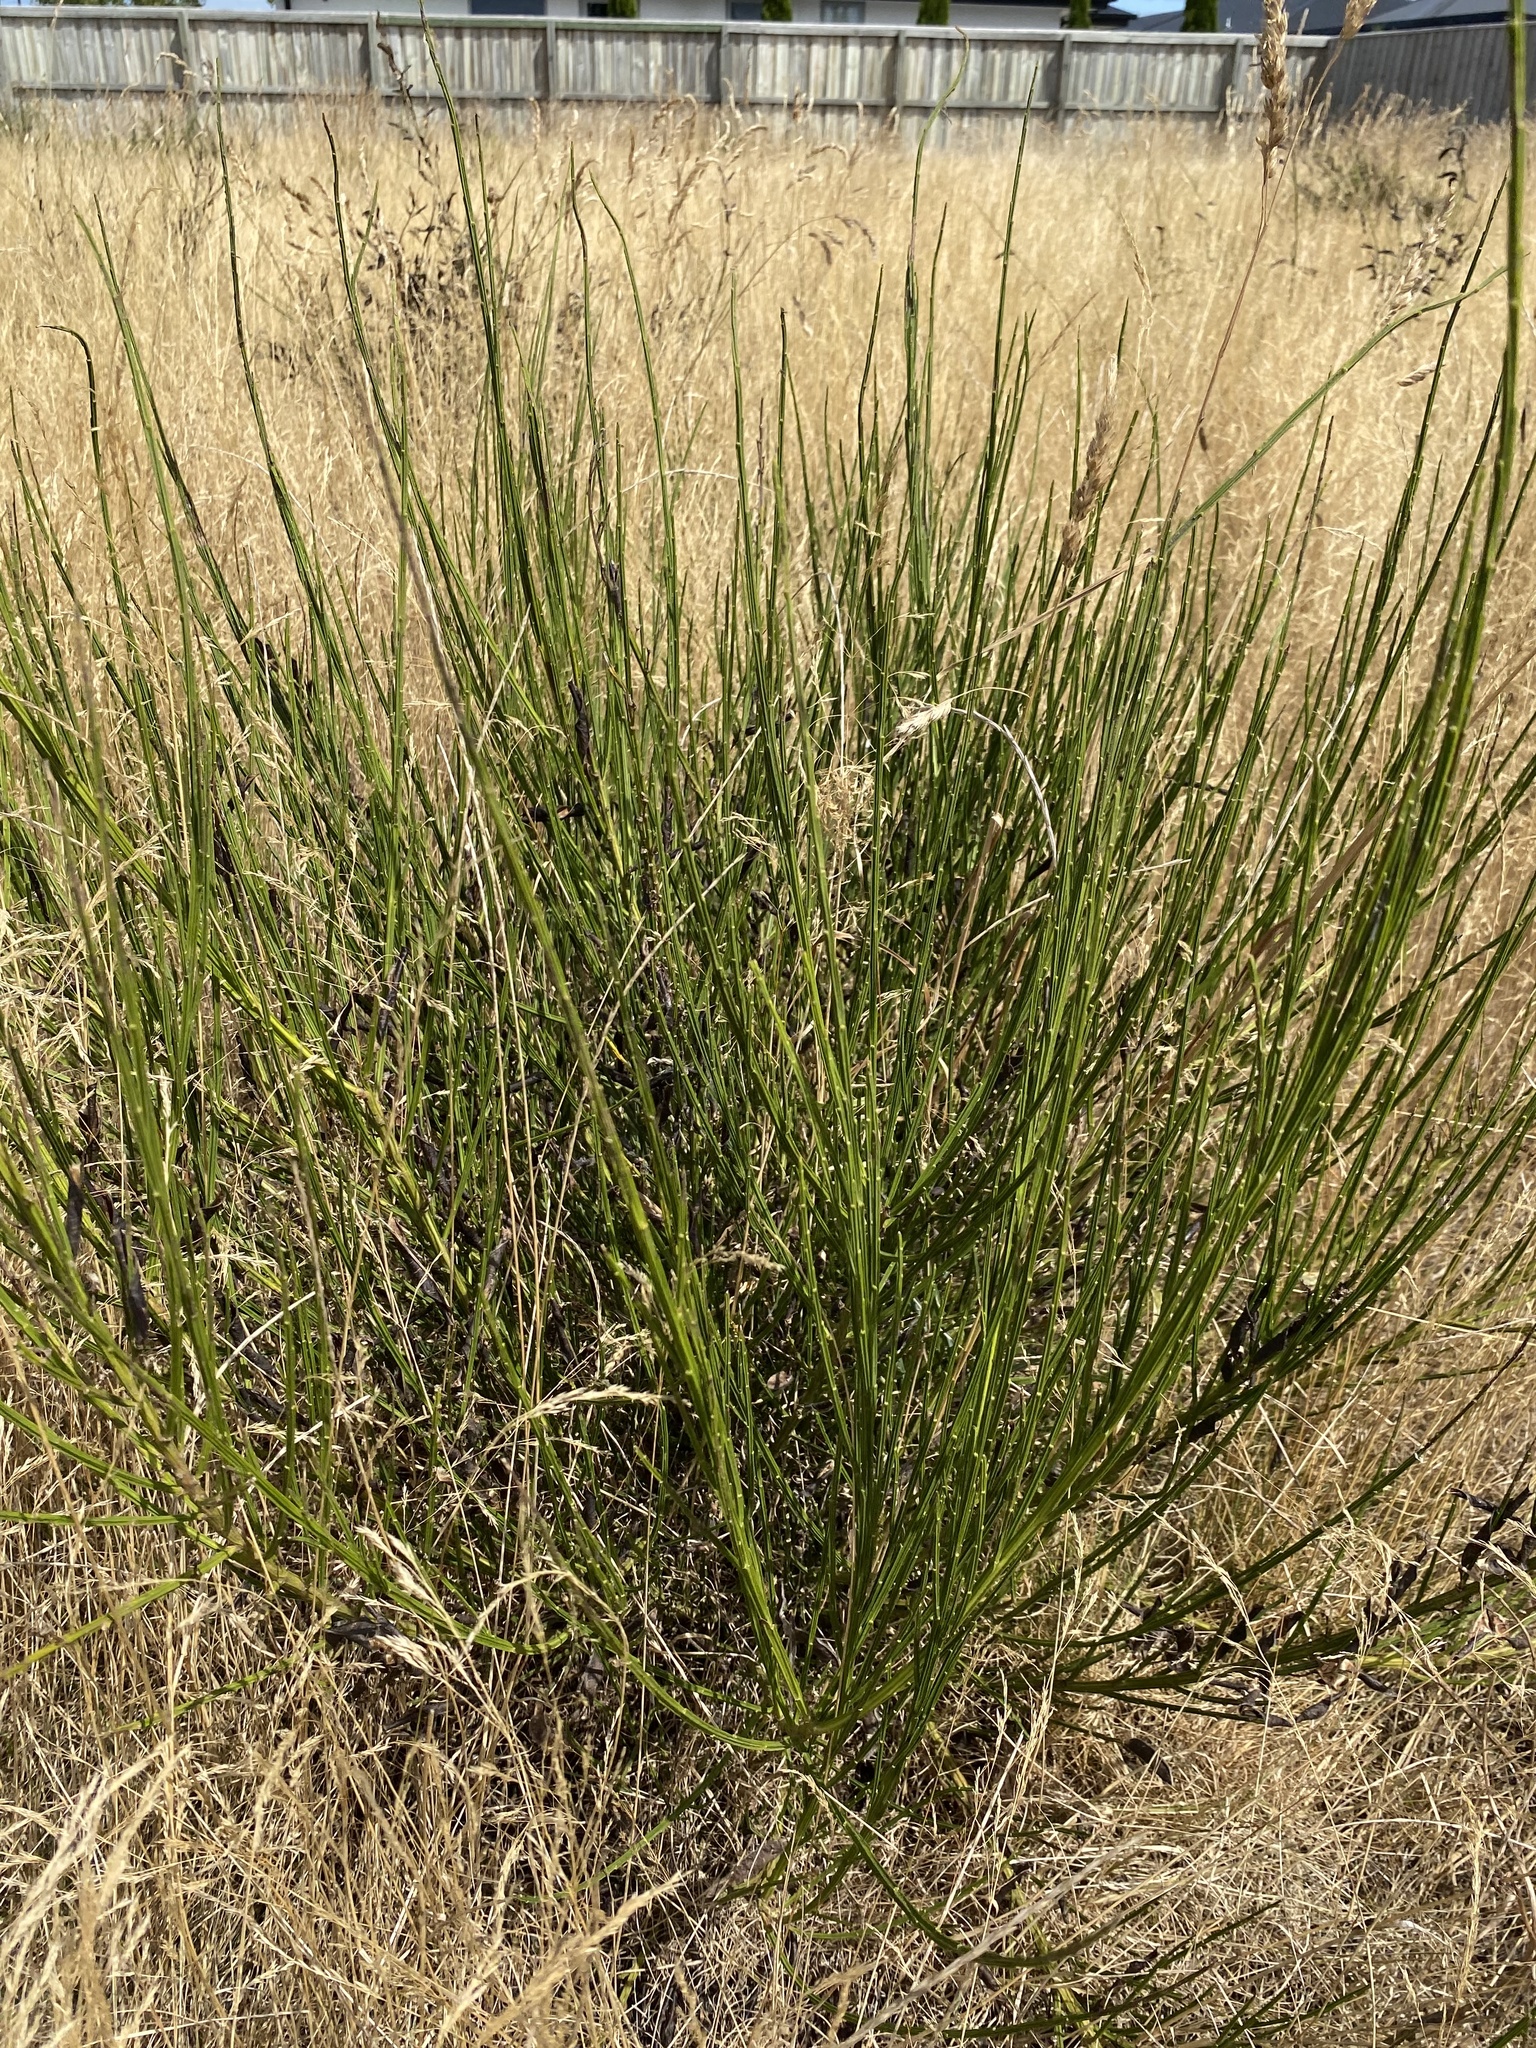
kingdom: Plantae
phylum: Tracheophyta
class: Magnoliopsida
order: Fabales
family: Fabaceae
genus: Cytisus
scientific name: Cytisus scoparius
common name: Scotch broom
